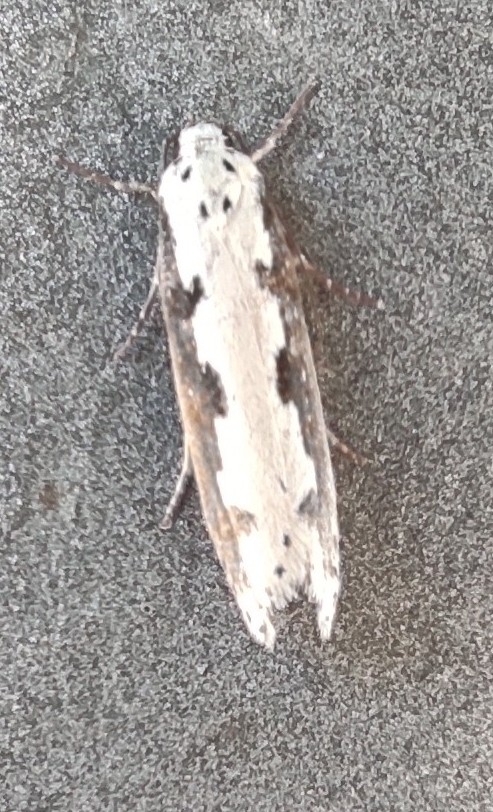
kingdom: Animalia
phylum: Arthropoda
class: Insecta
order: Lepidoptera
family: Ethmiidae
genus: Ethmia
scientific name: Ethmia bipunctella
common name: Bordered ermel
